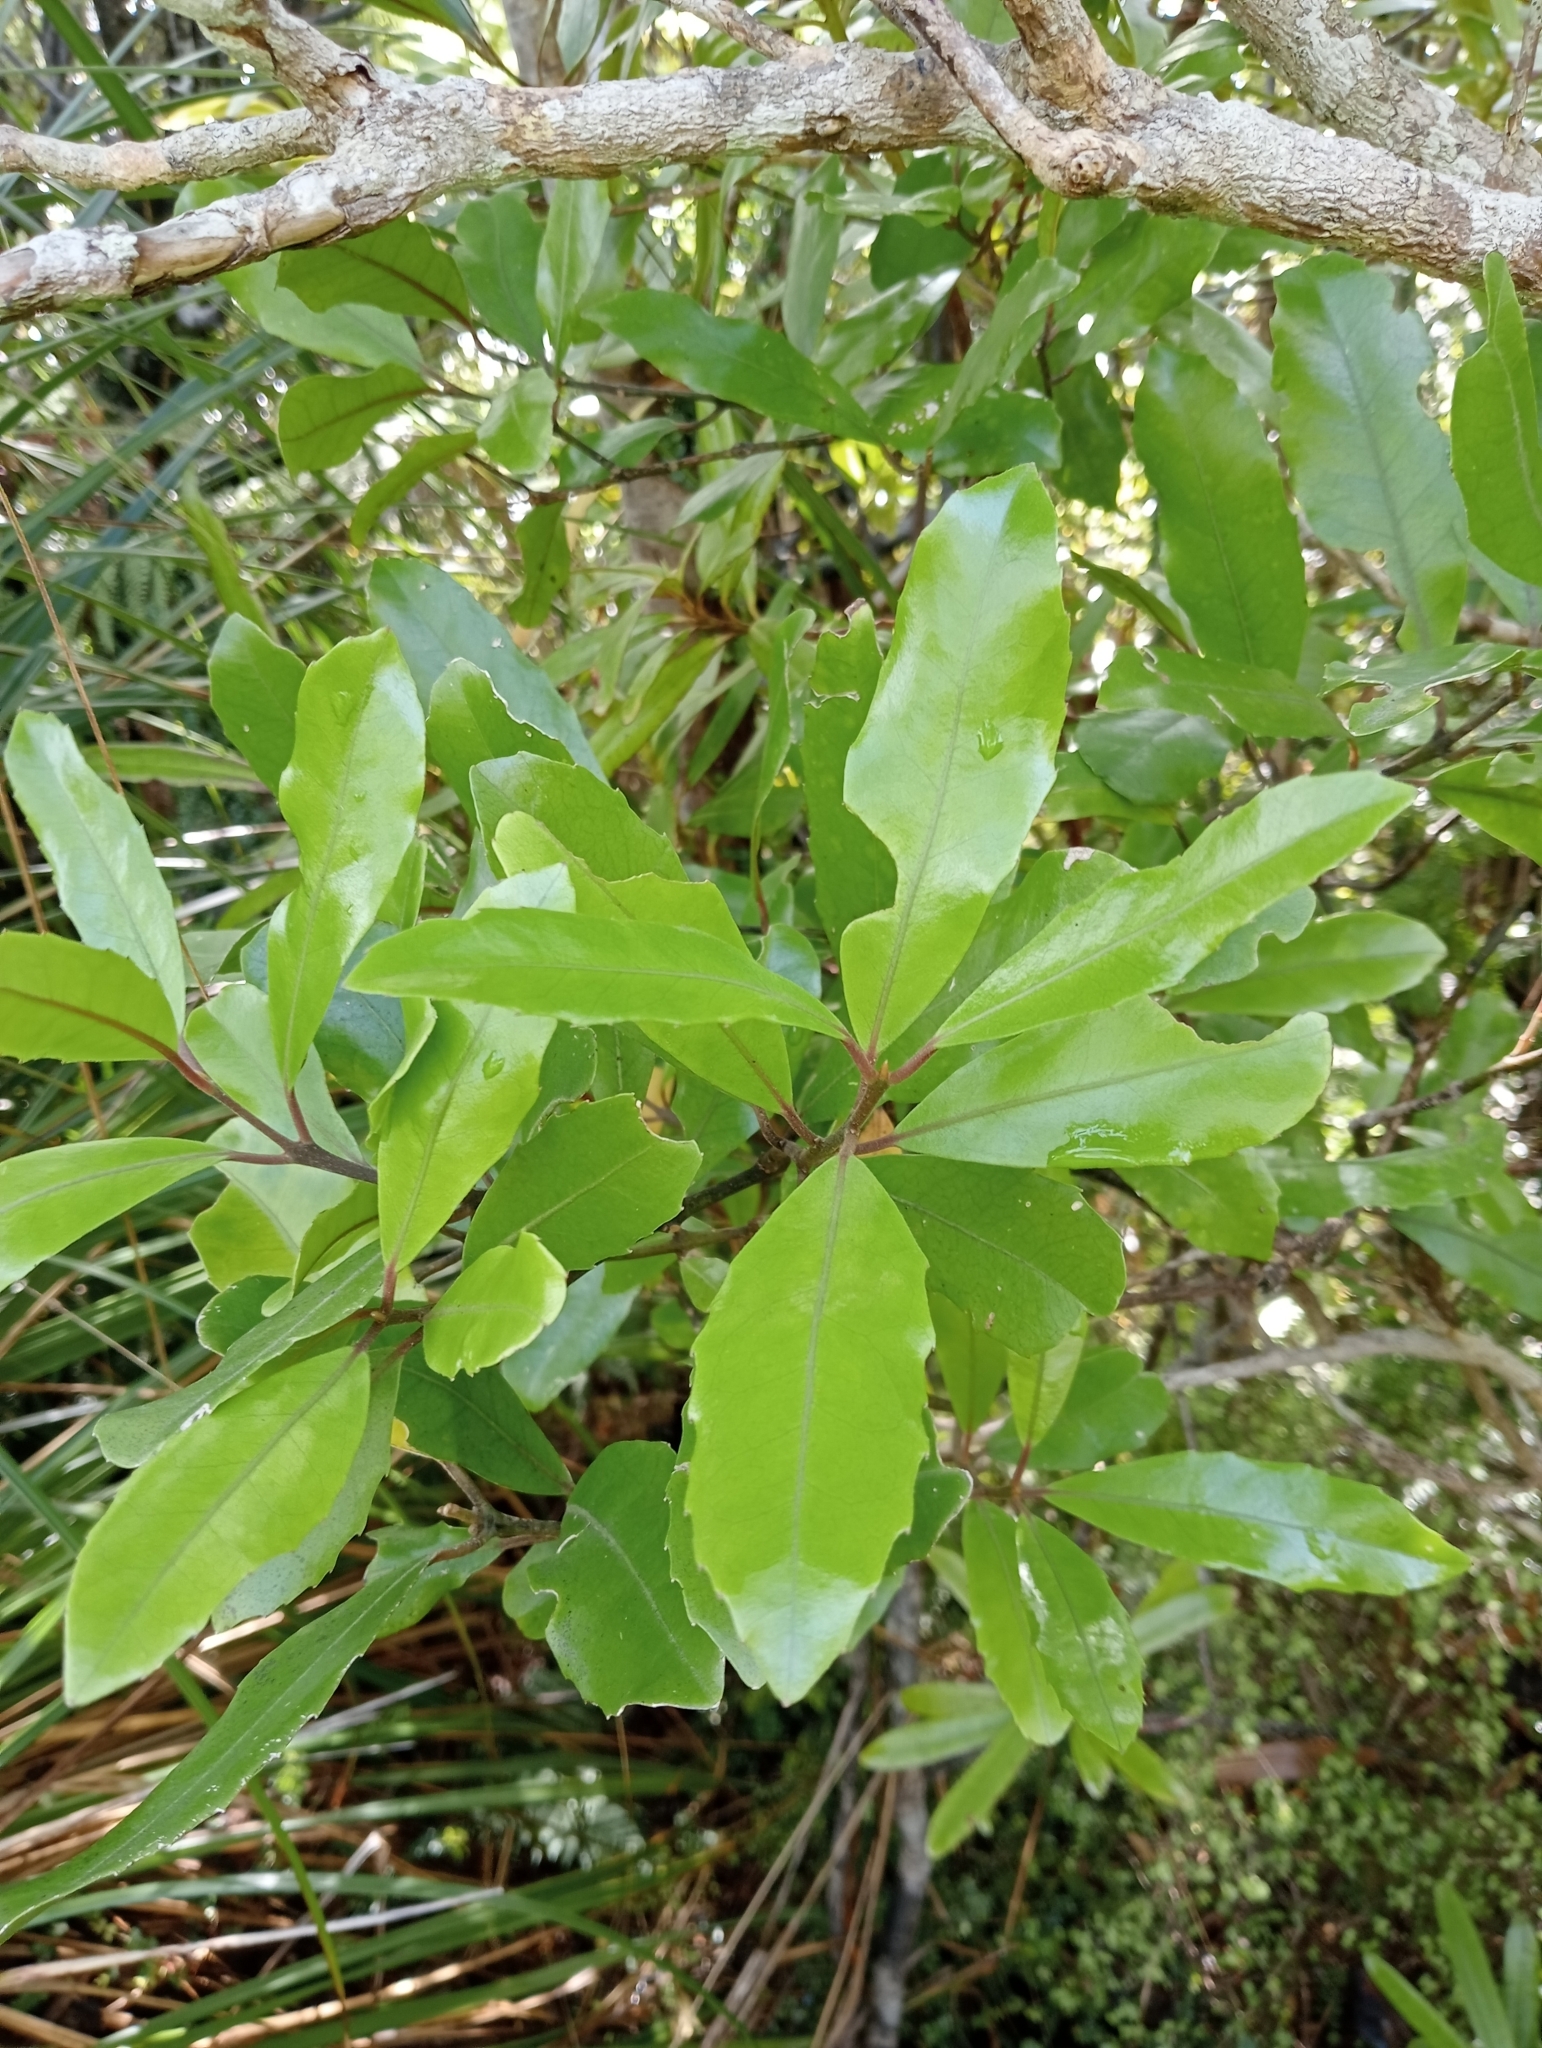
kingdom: Plantae
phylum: Tracheophyta
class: Magnoliopsida
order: Laurales
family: Monimiaceae
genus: Hedycarya
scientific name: Hedycarya arborea
